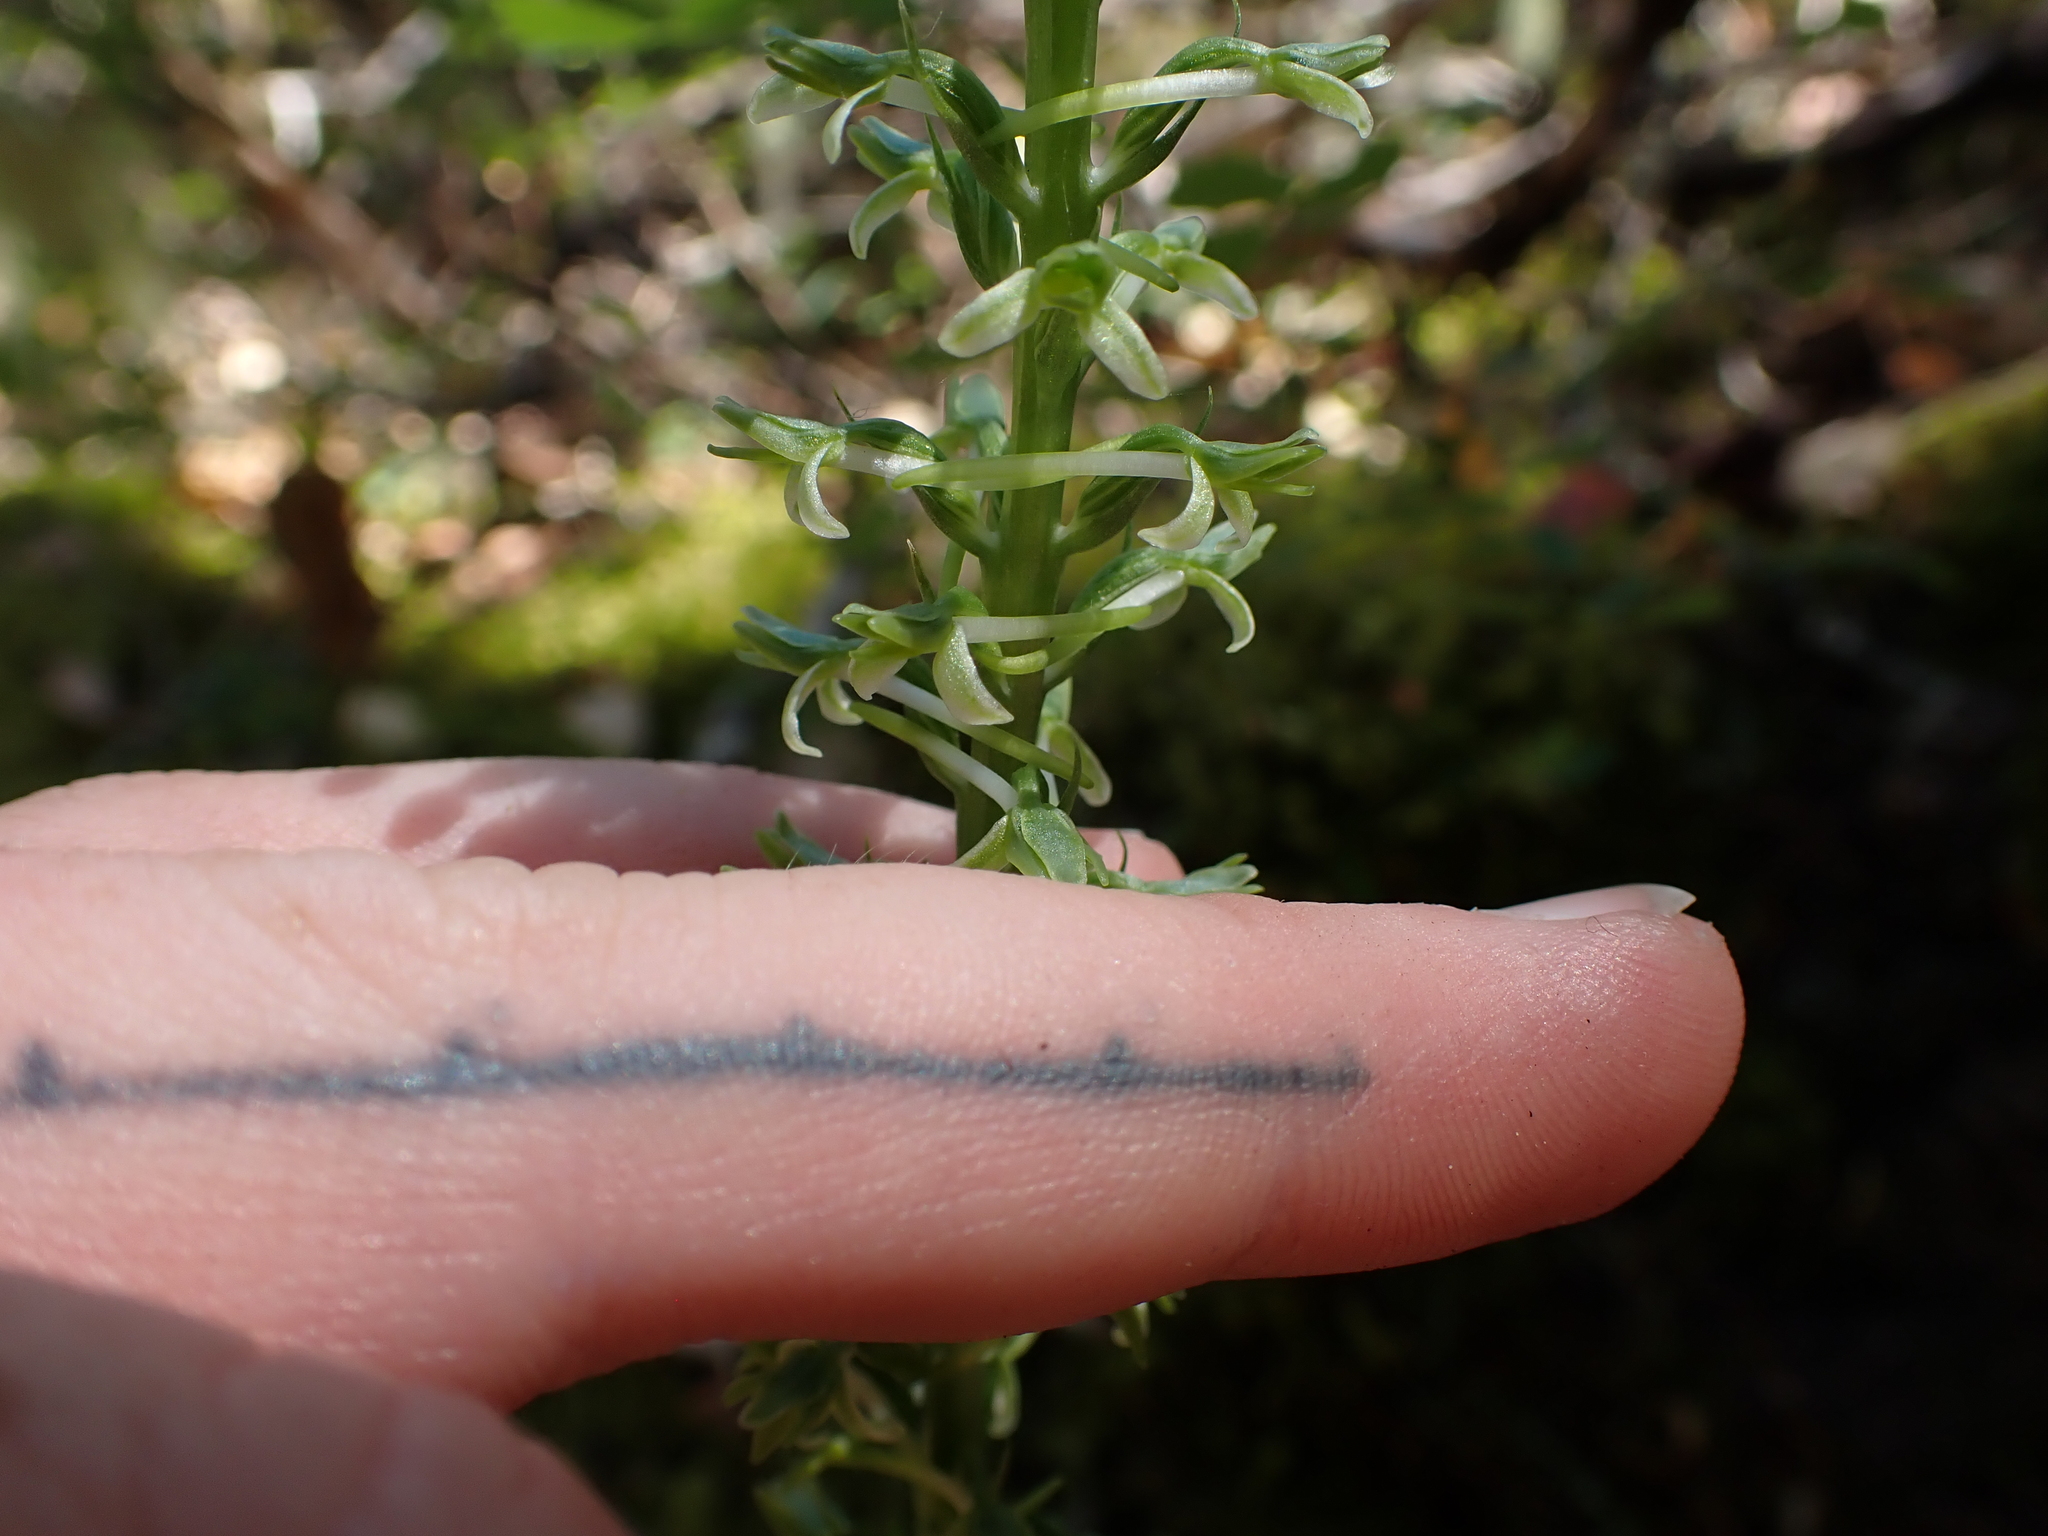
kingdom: Plantae
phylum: Tracheophyta
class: Liliopsida
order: Asparagales
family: Orchidaceae
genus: Platanthera
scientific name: Platanthera elongata
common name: Dense-flowered rein orchid
